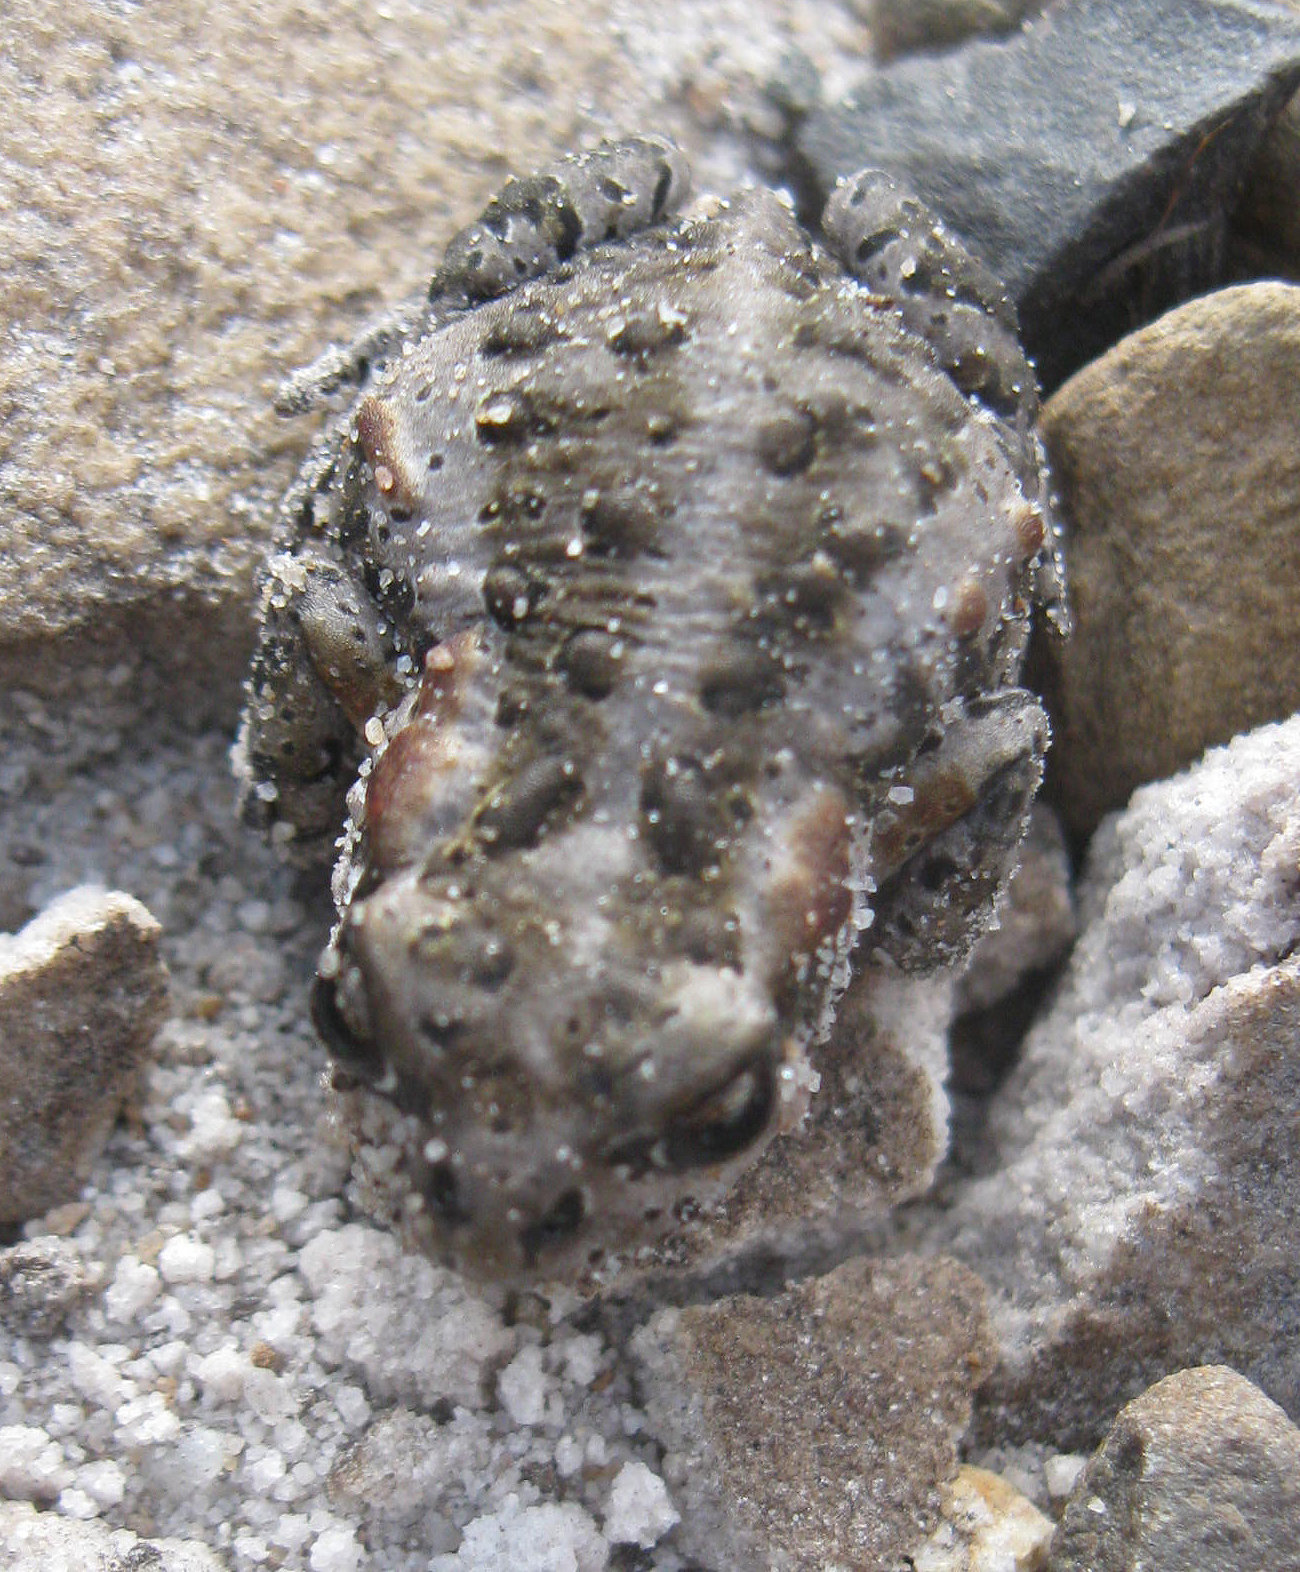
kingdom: Animalia
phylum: Chordata
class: Amphibia
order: Anura
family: Bufonidae
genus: Capensibufo
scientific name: Capensibufo rosei
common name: Cape mountain toad
